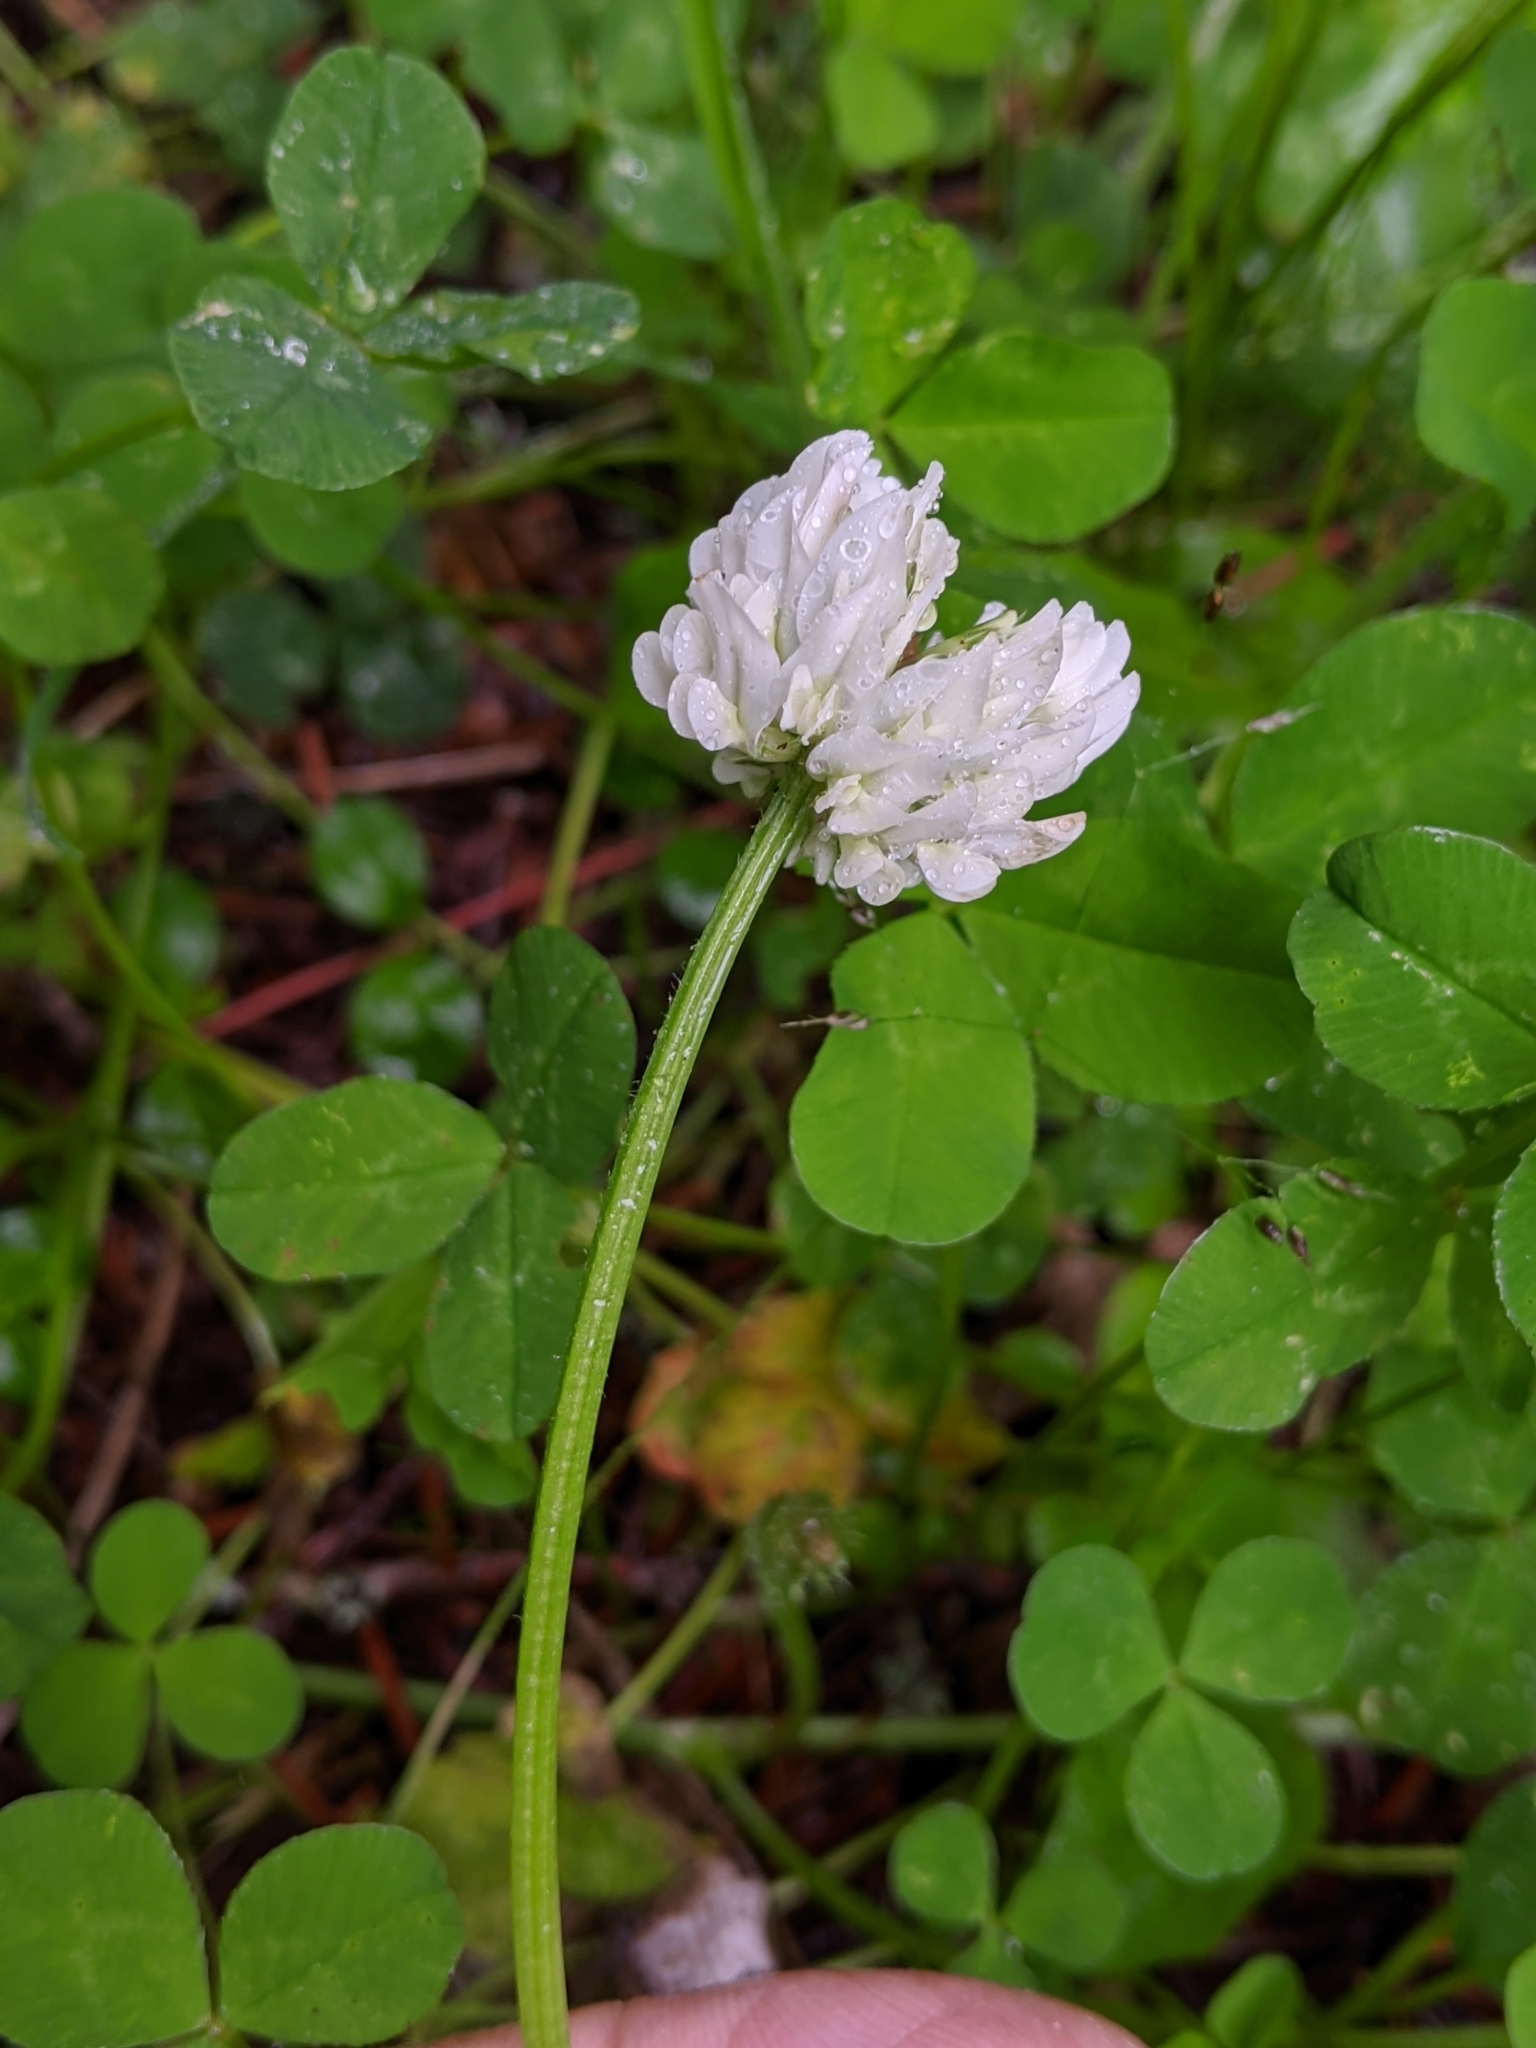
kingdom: Plantae
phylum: Tracheophyta
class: Magnoliopsida
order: Fabales
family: Fabaceae
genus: Trifolium
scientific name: Trifolium repens
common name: White clover
